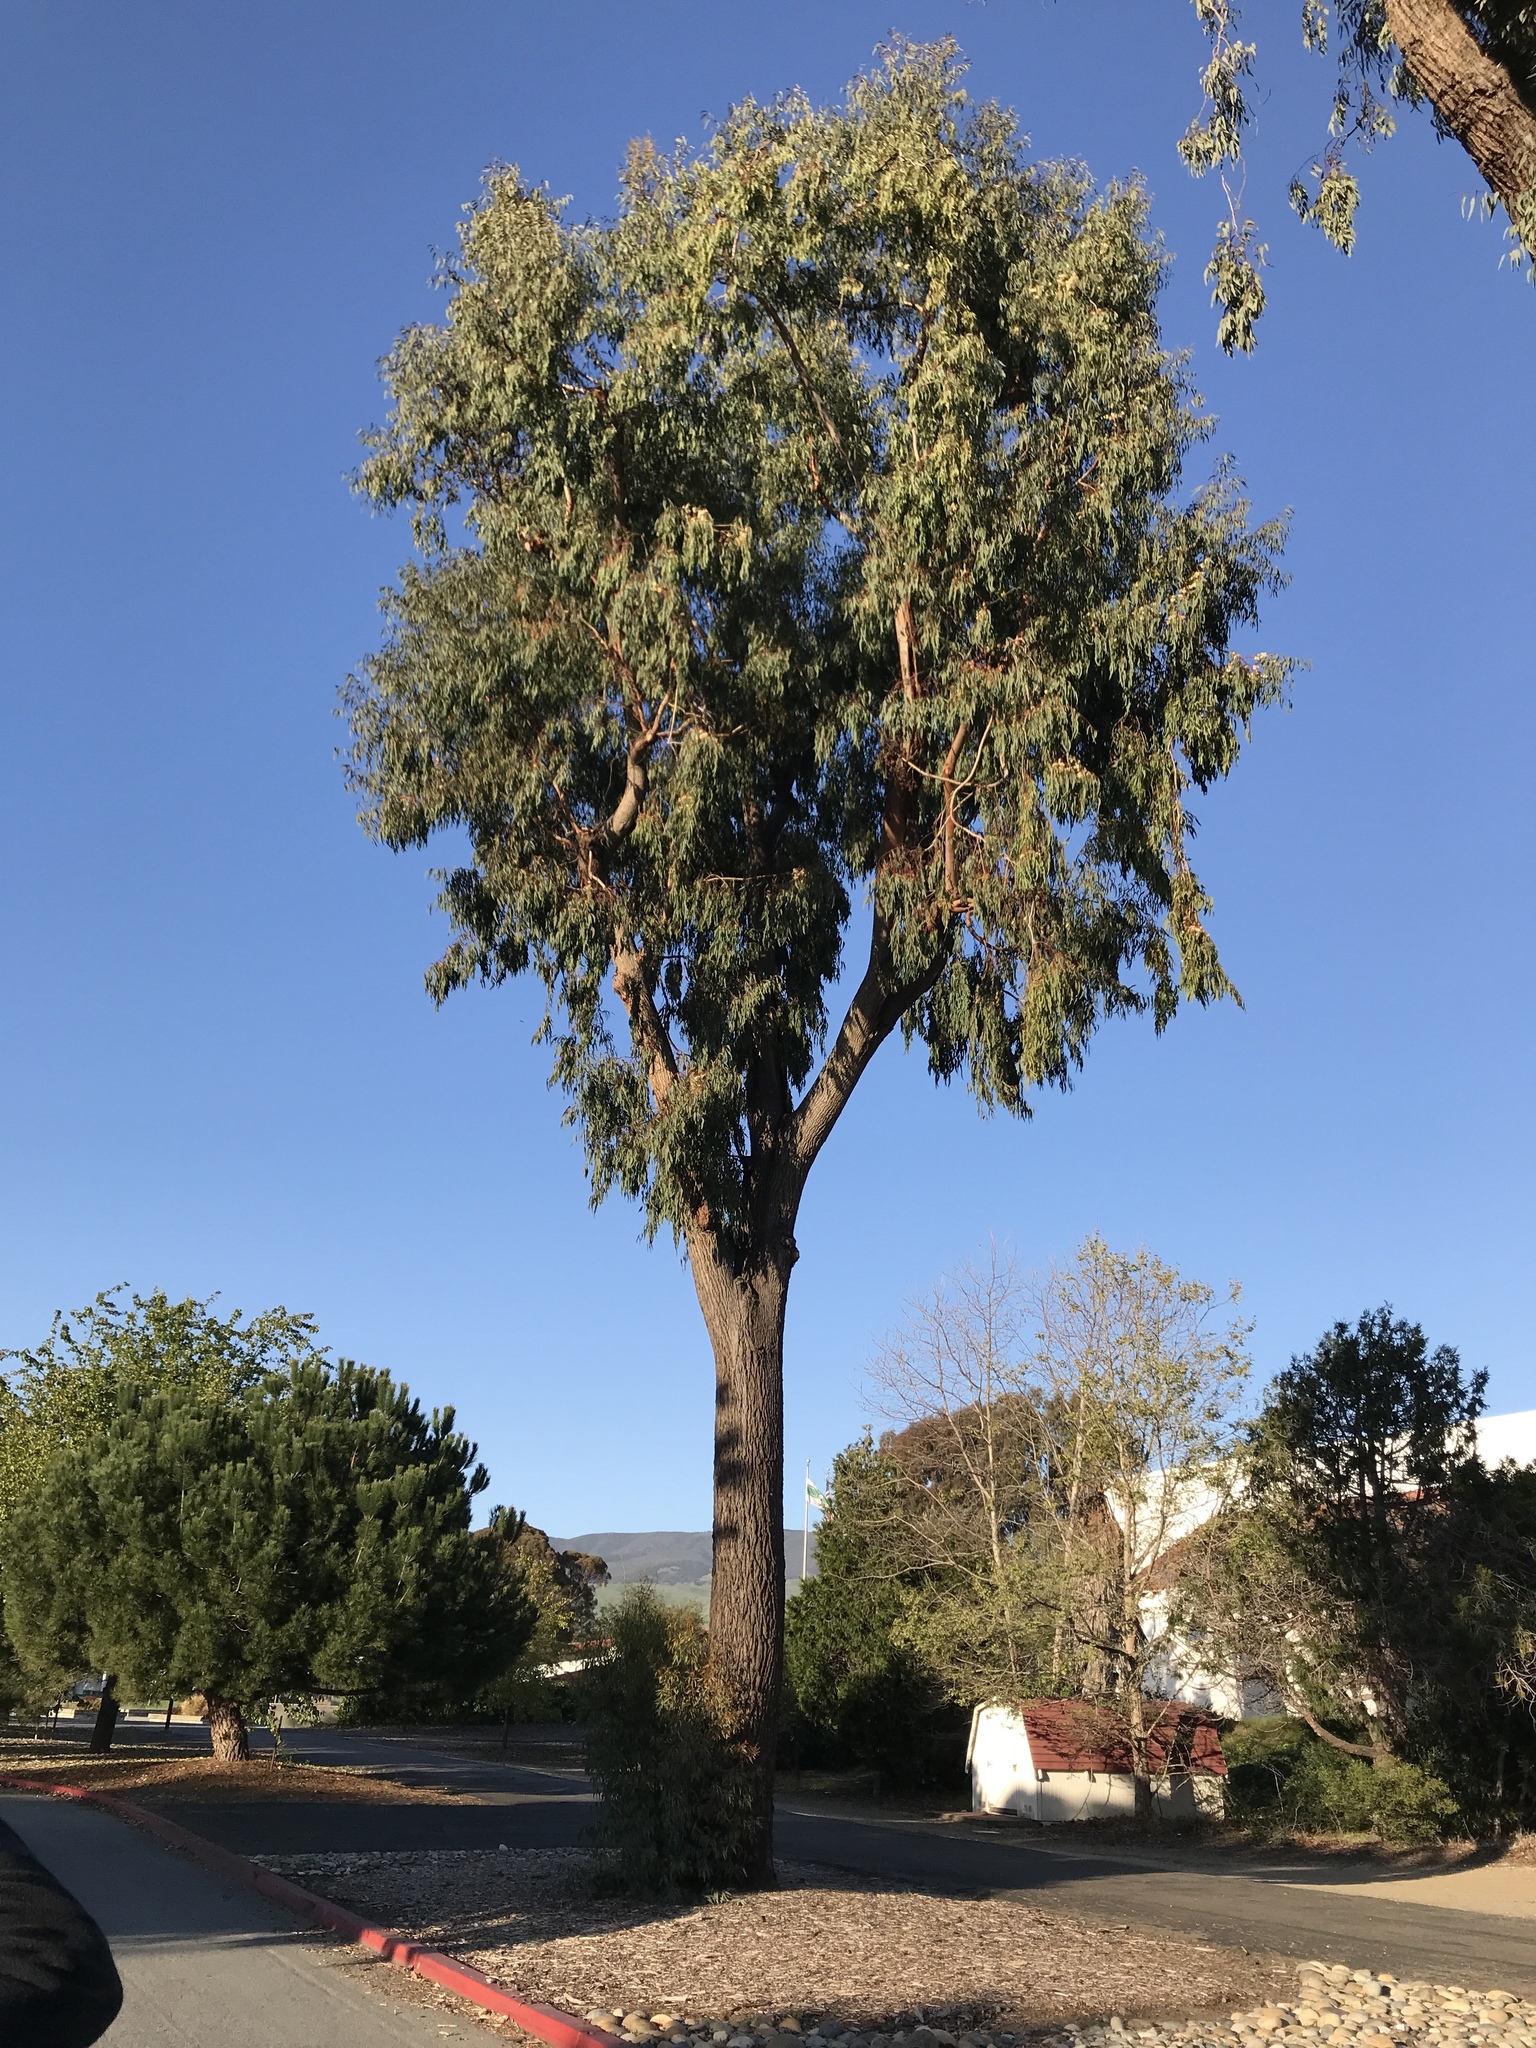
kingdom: Plantae
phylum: Tracheophyta
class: Magnoliopsida
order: Myrtales
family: Myrtaceae
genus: Eucalyptus
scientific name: Eucalyptus sideroxylon
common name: Red ironbark
